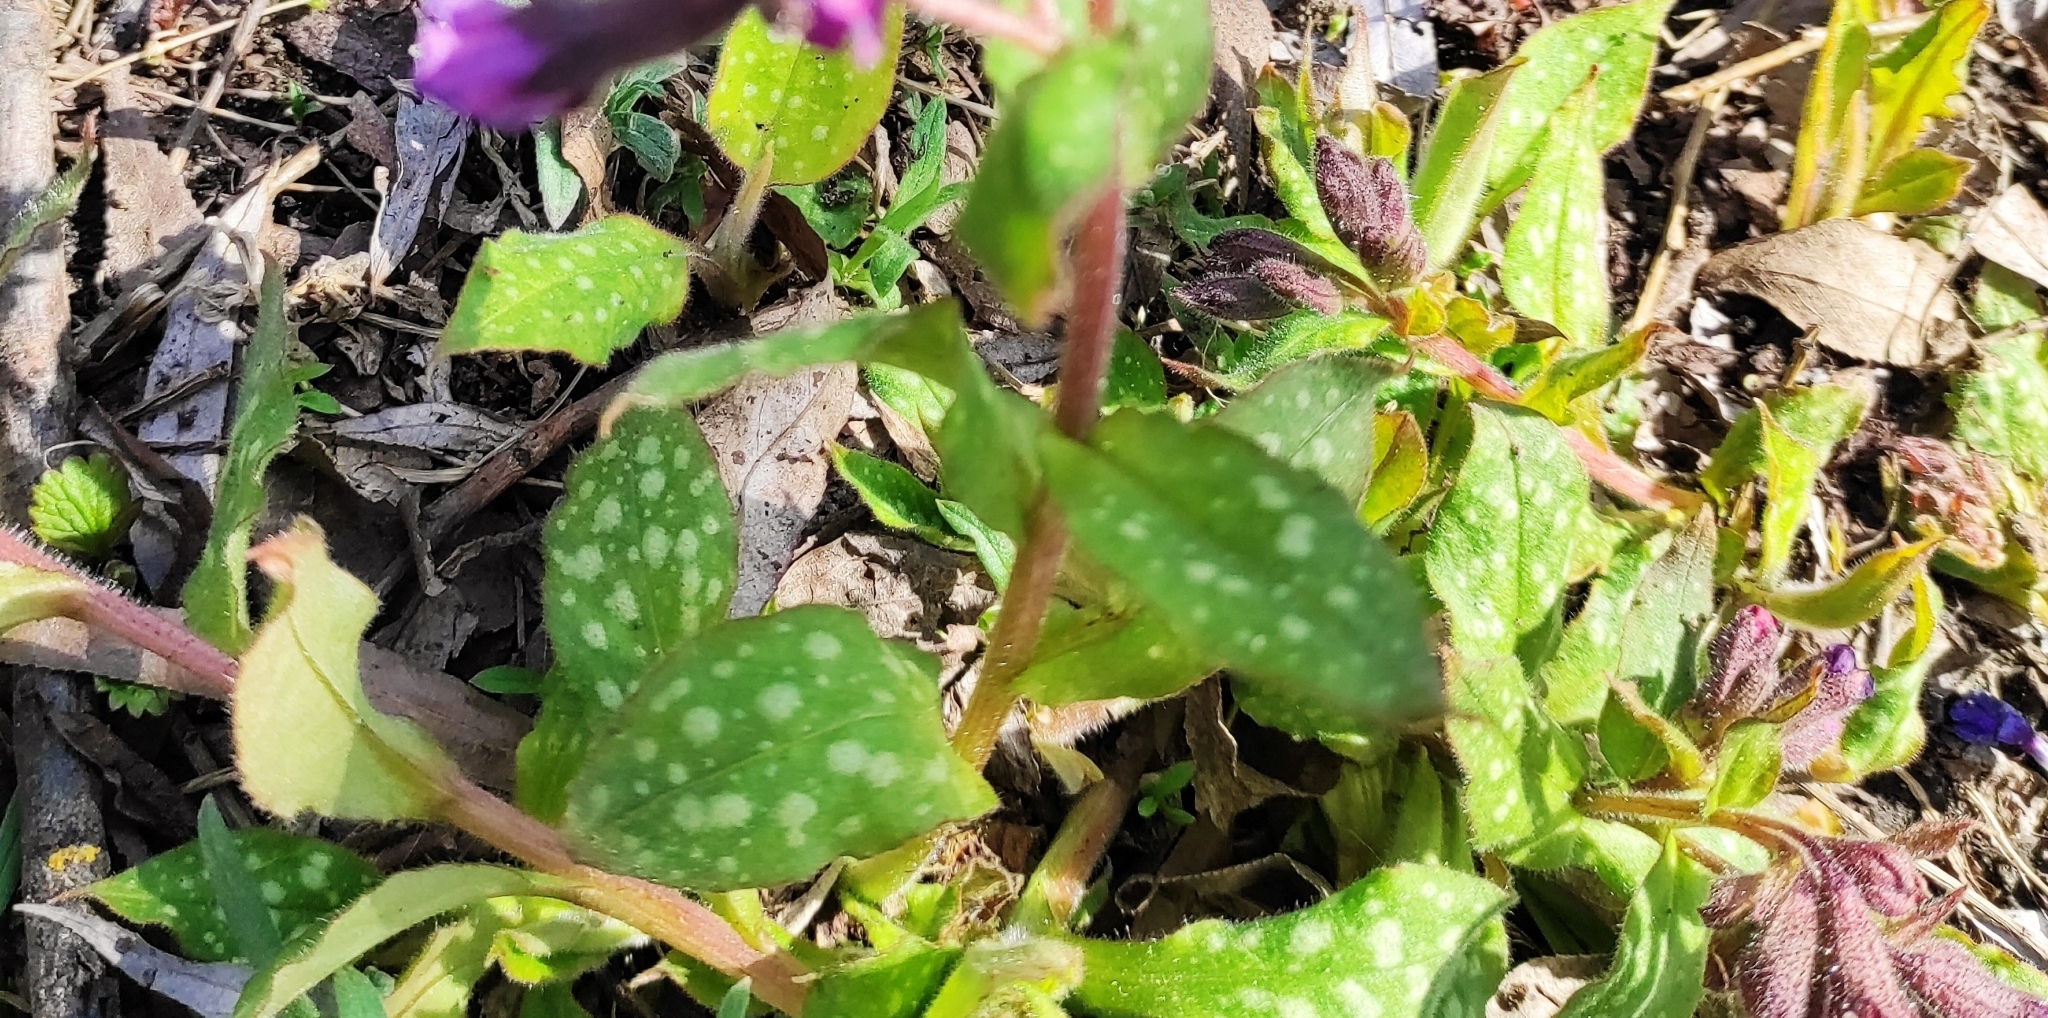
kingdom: Plantae
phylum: Tracheophyta
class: Magnoliopsida
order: Boraginales
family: Boraginaceae
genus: Pulmonaria
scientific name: Pulmonaria obscura
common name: Suffolk lungwort
